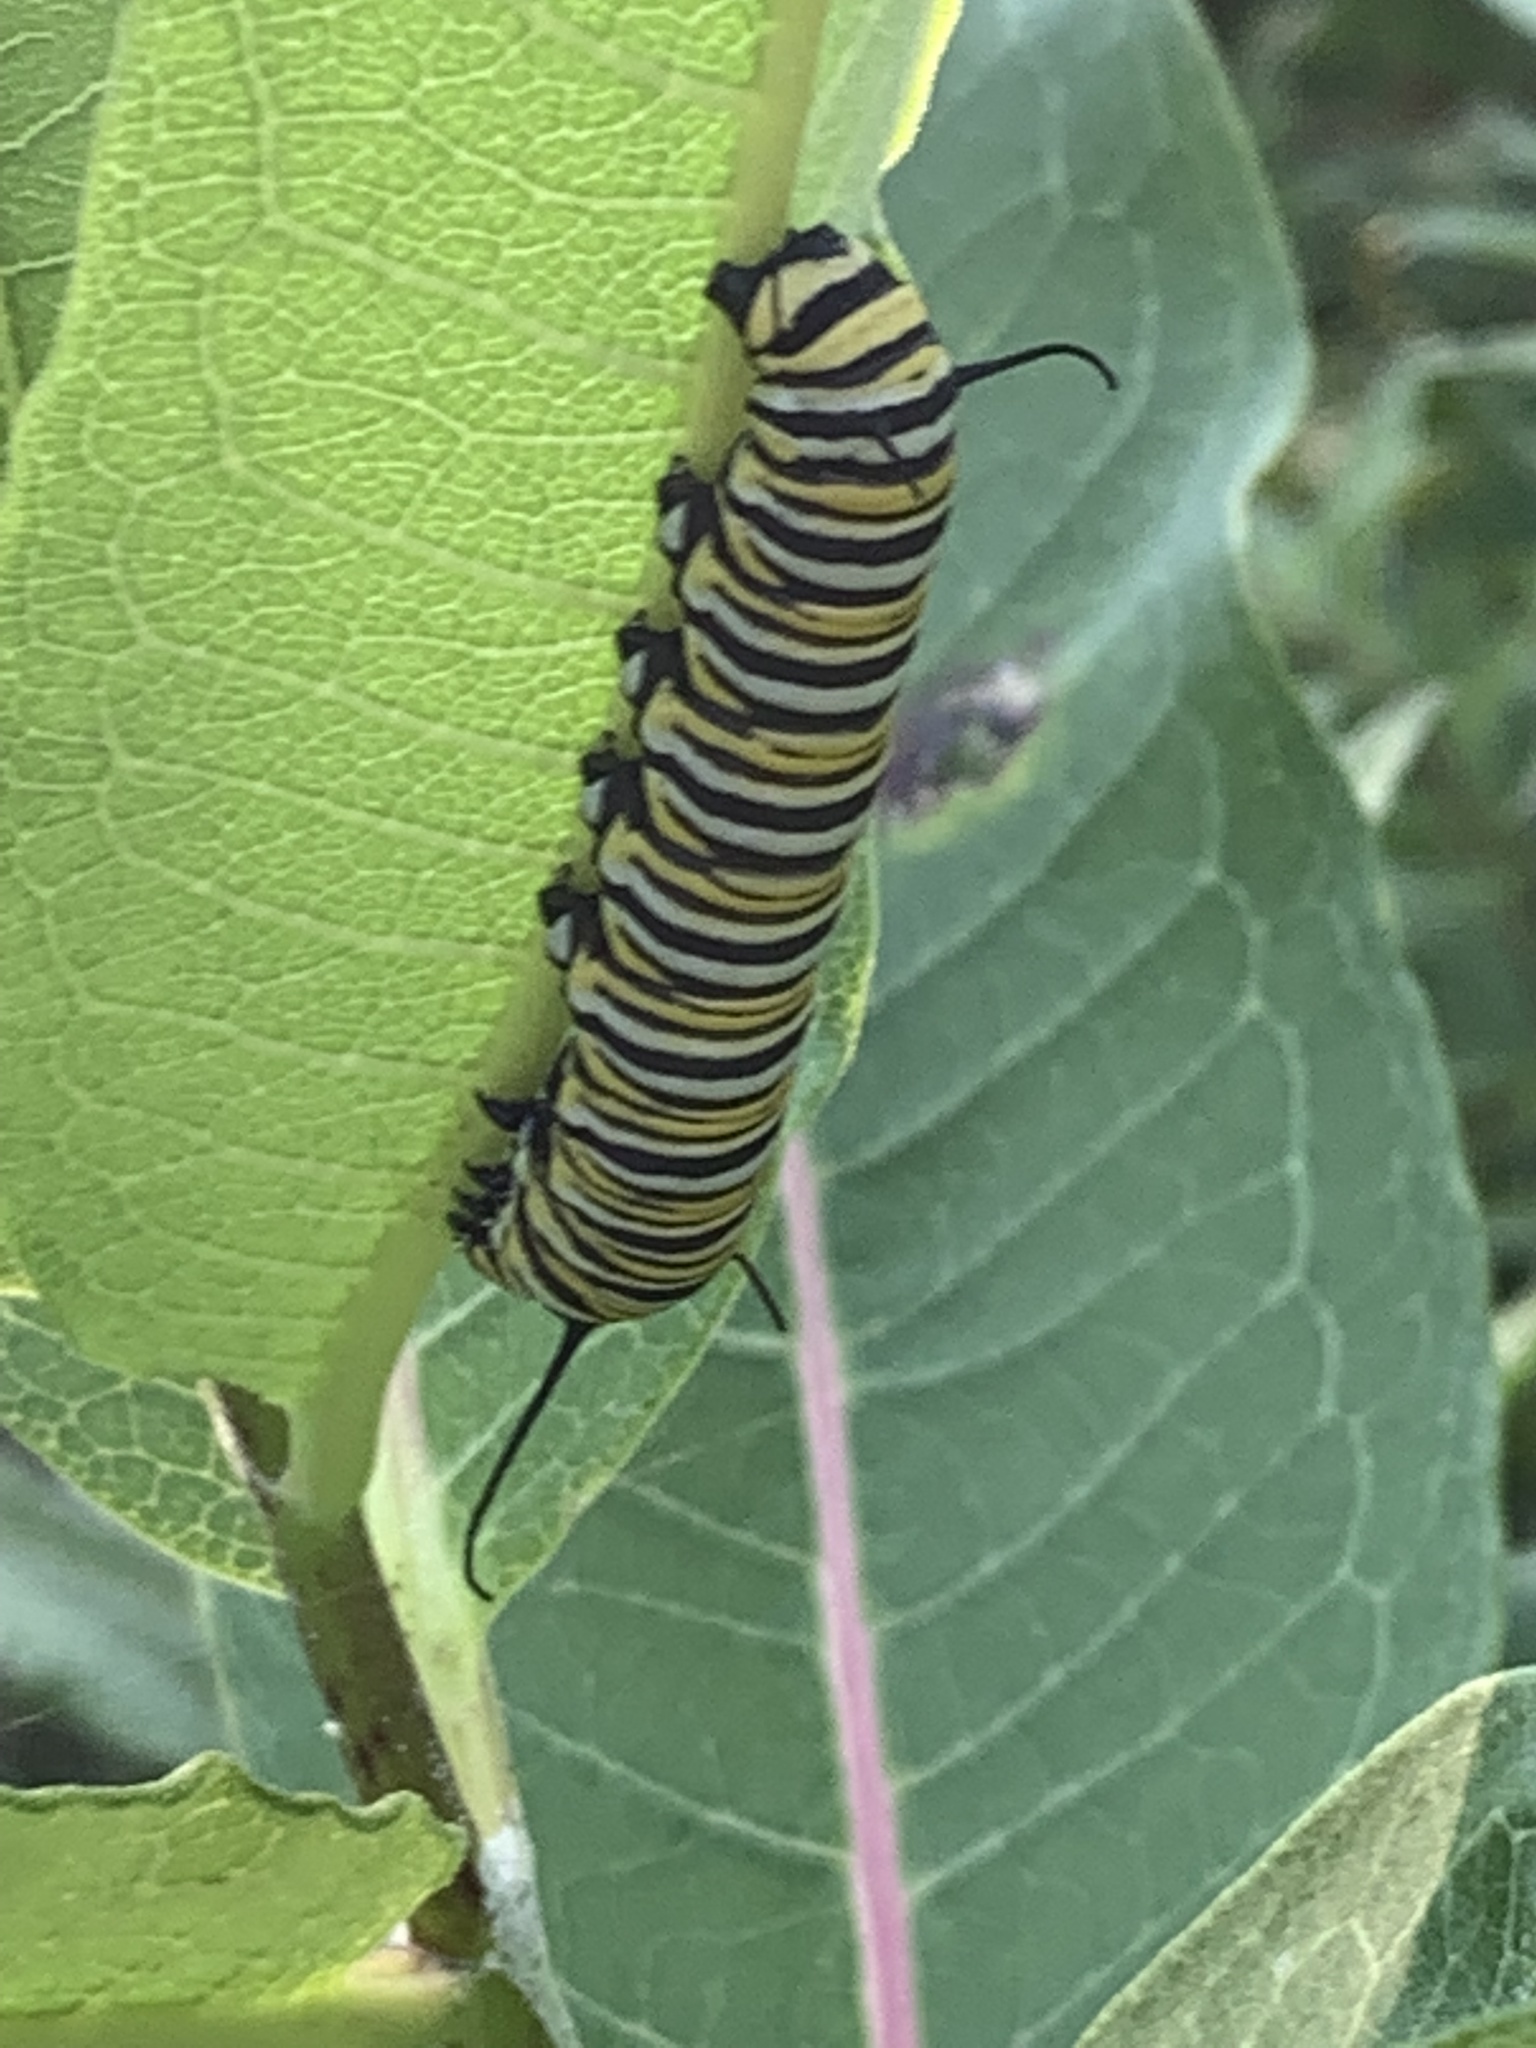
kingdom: Animalia
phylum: Arthropoda
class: Insecta
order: Lepidoptera
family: Nymphalidae
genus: Danaus
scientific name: Danaus plexippus
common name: Monarch
